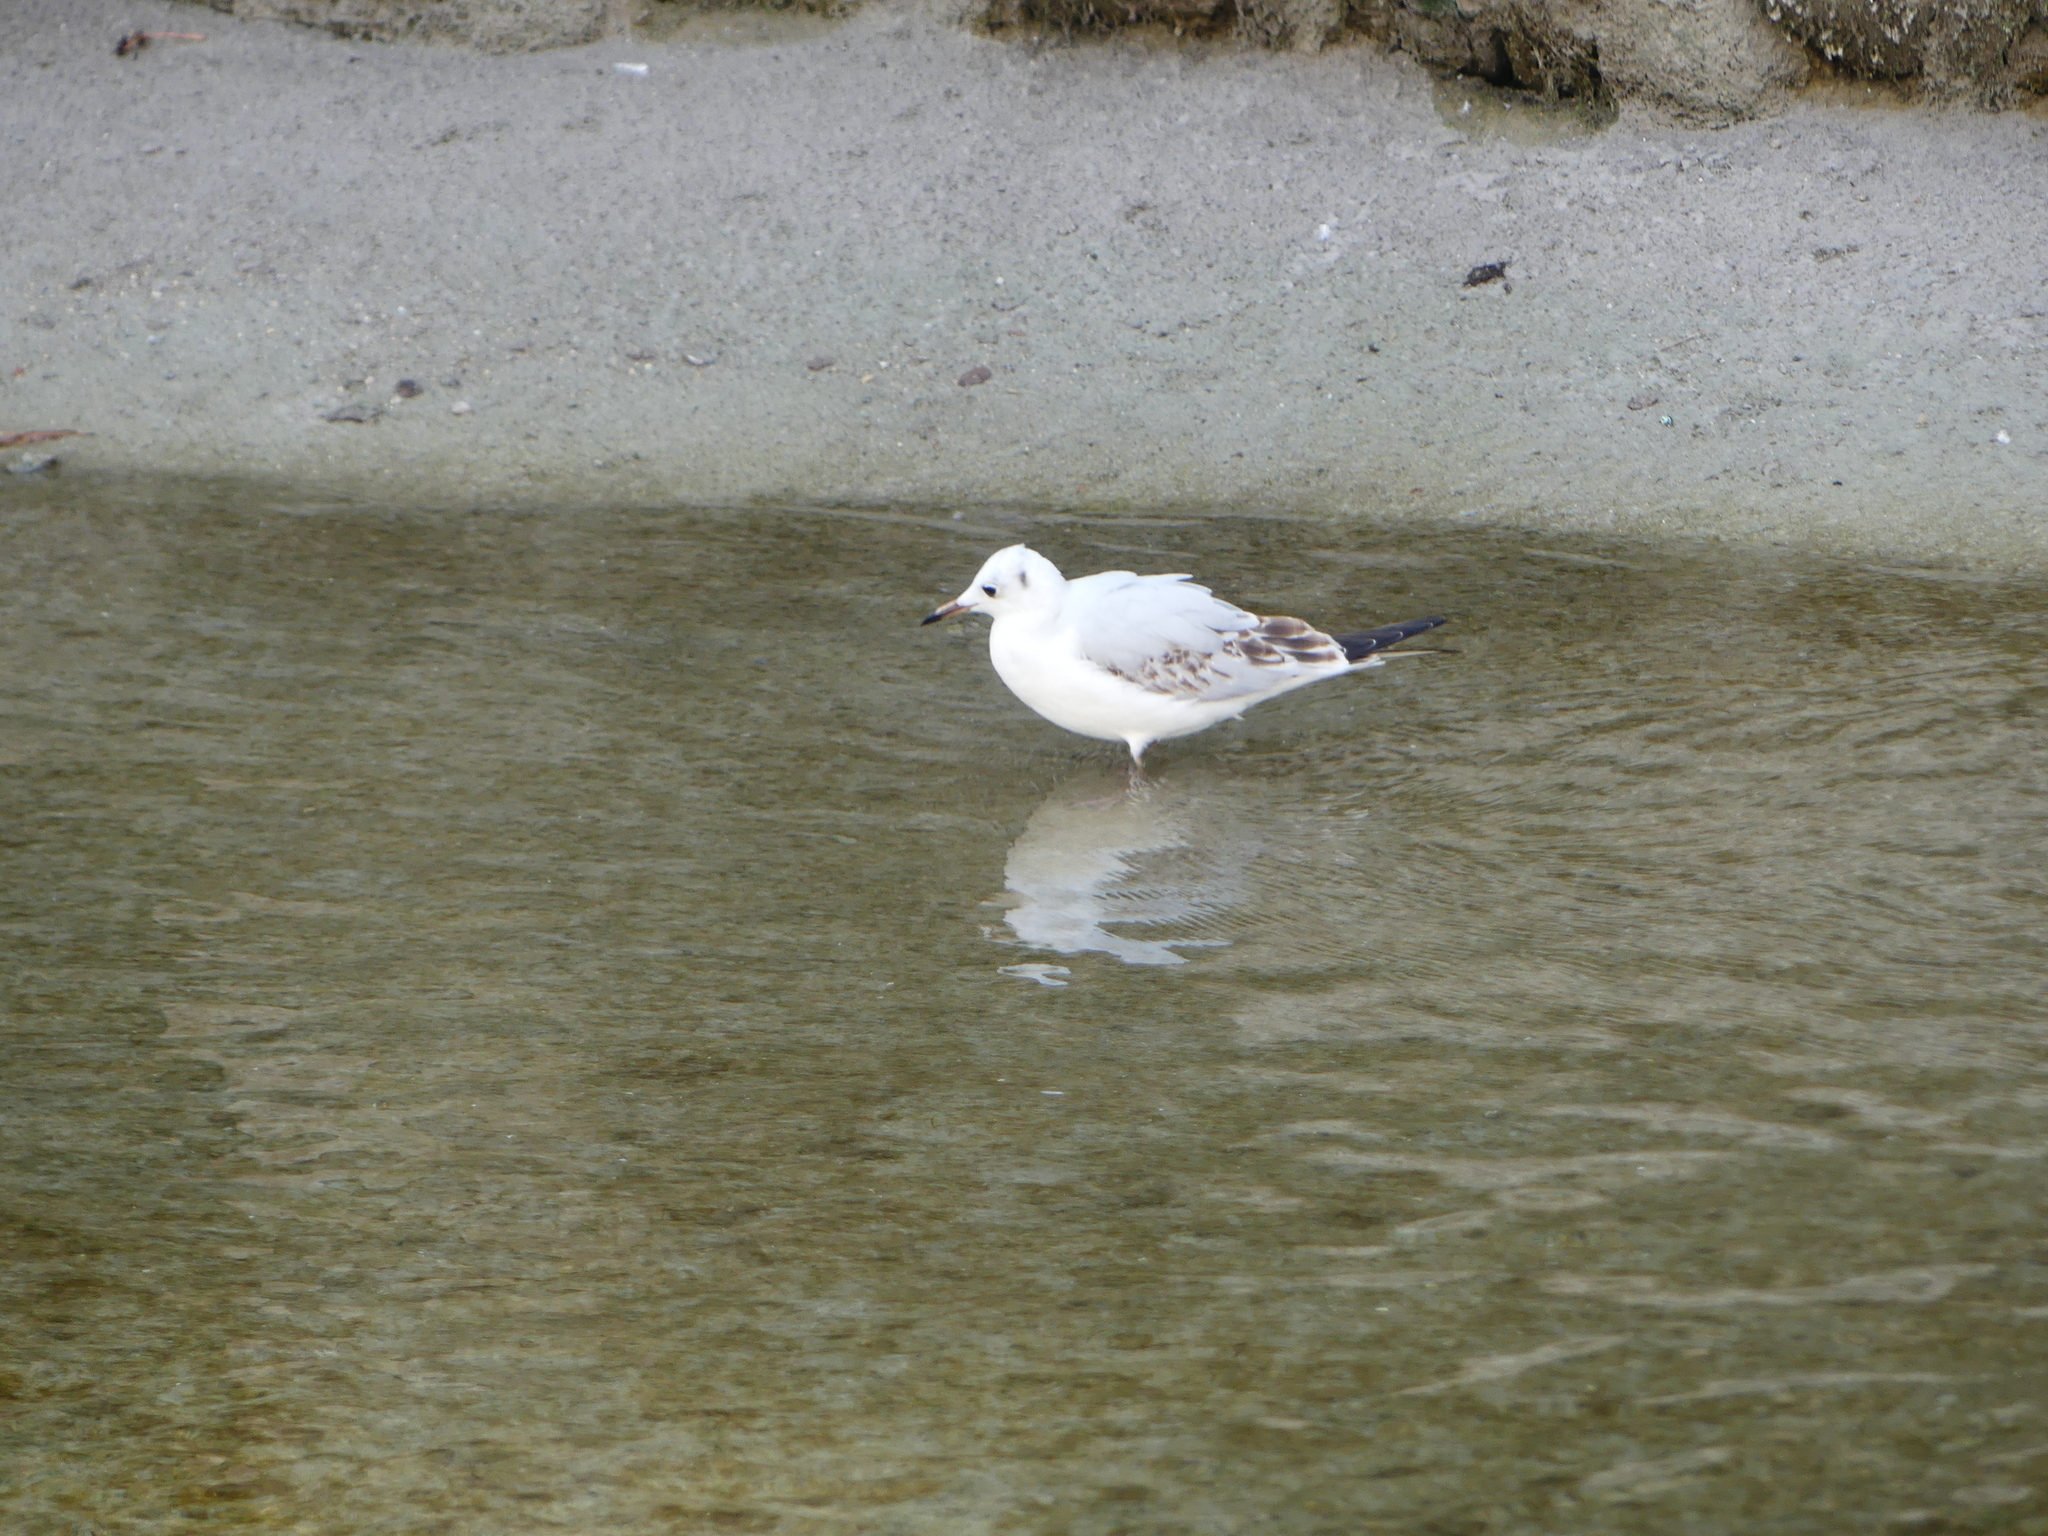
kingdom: Animalia
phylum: Chordata
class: Aves
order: Charadriiformes
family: Laridae
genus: Chroicocephalus
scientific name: Chroicocephalus ridibundus
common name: Black-headed gull
